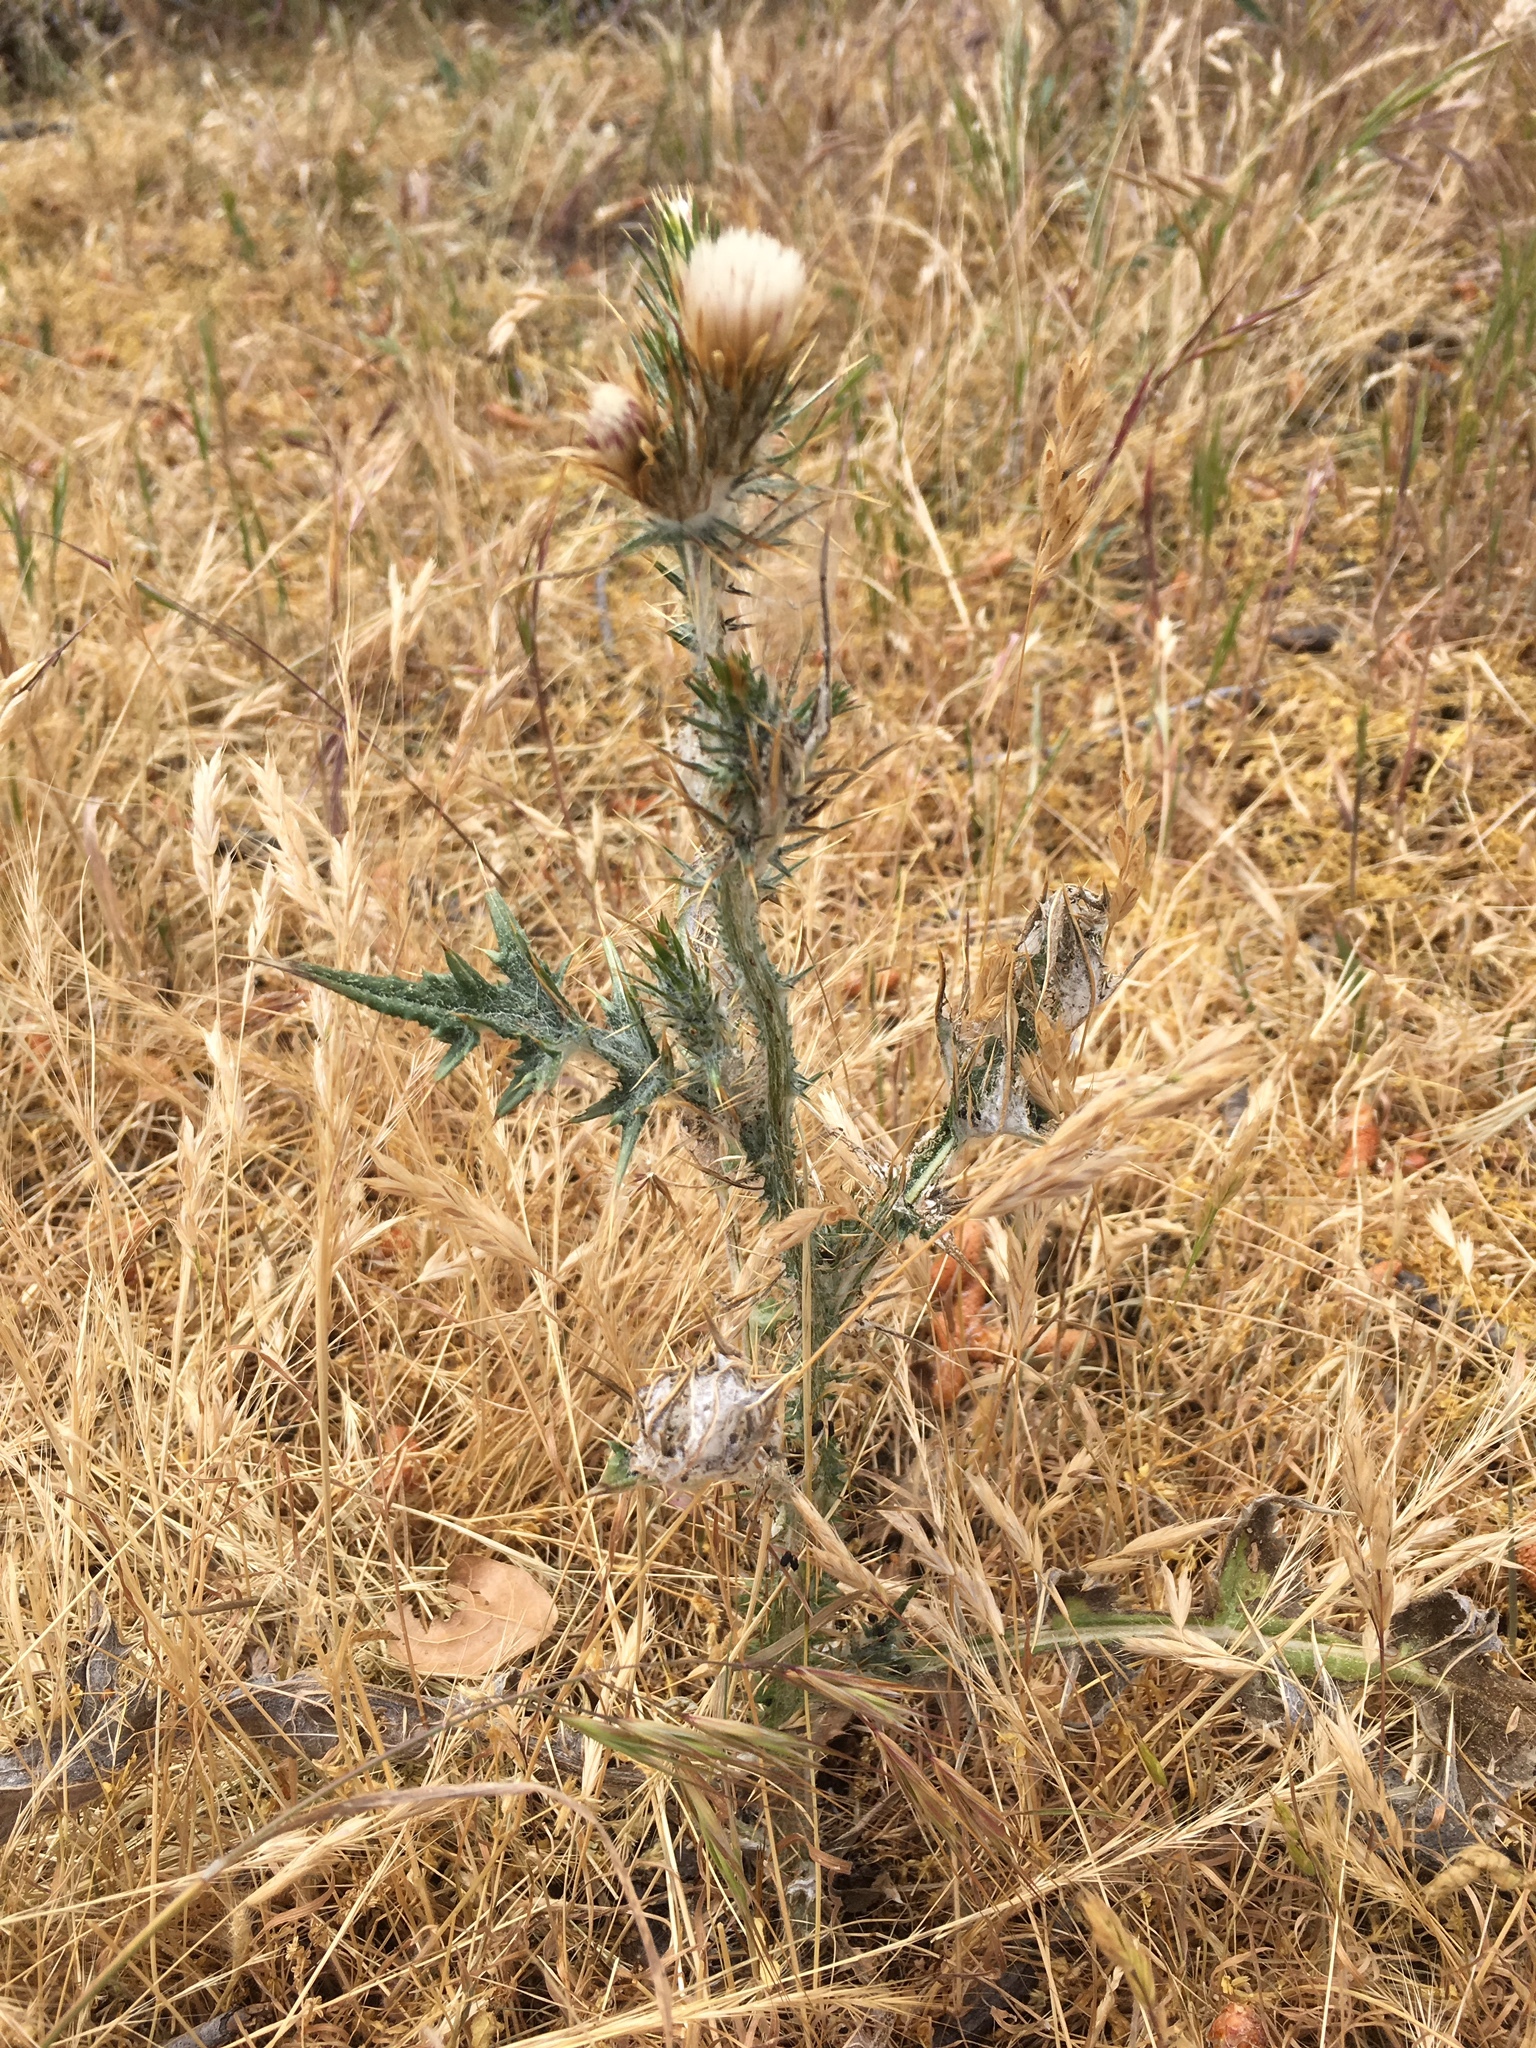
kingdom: Plantae
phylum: Tracheophyta
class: Magnoliopsida
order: Asterales
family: Asteraceae
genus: Carduus
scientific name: Carduus pycnocephalus
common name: Plymouth thistle
